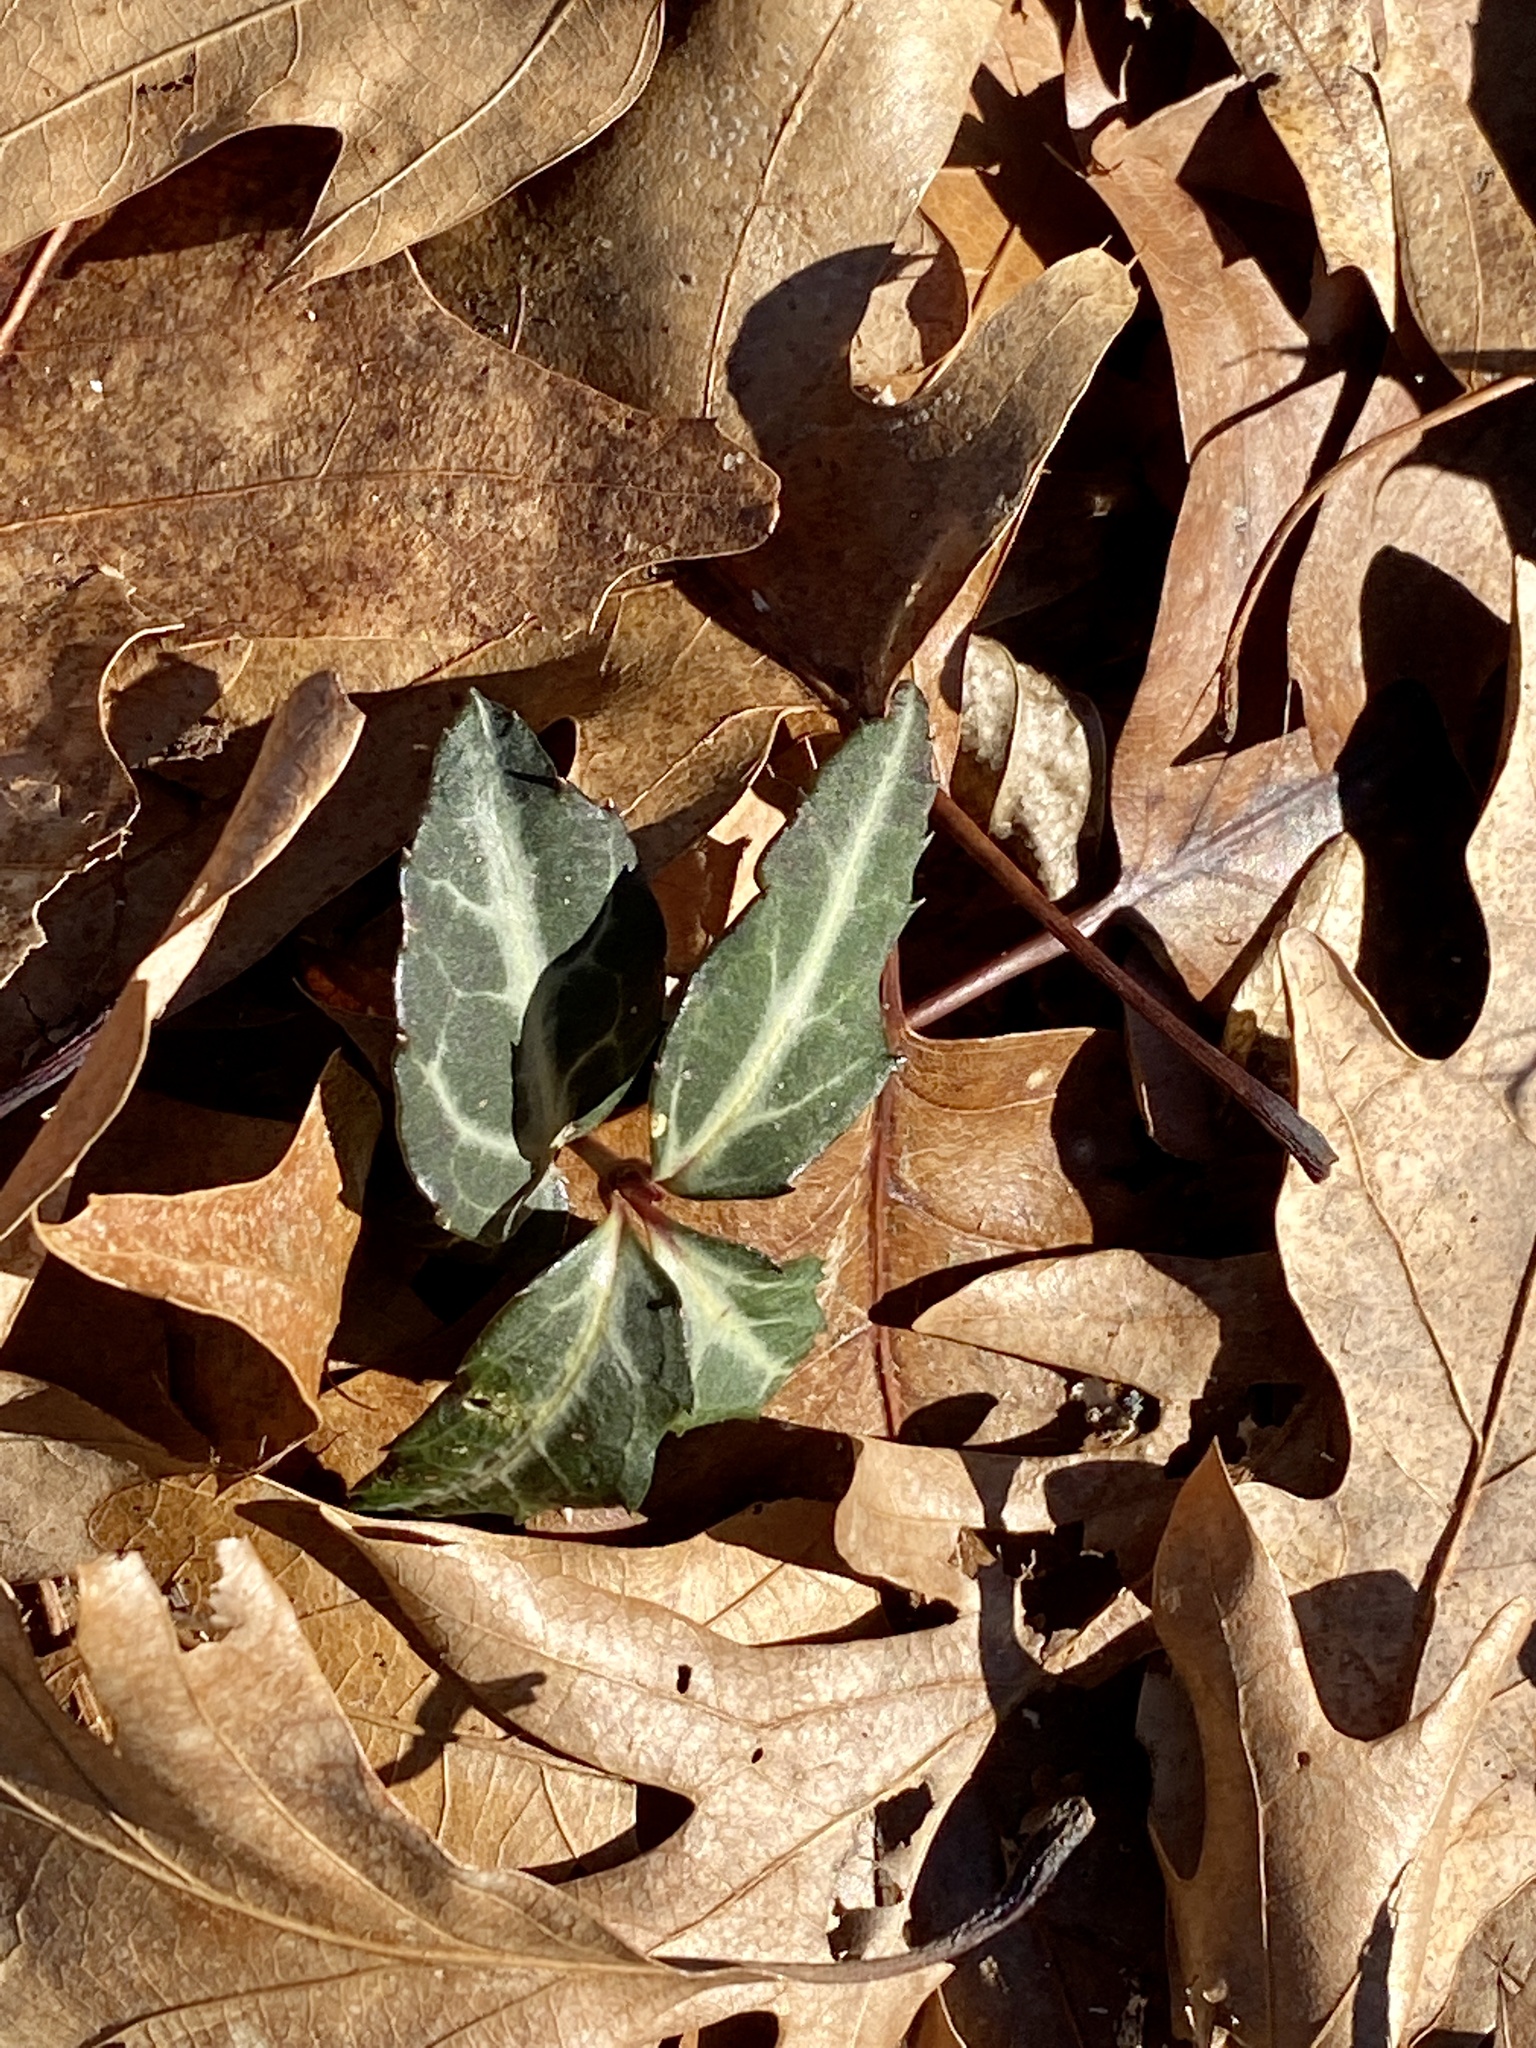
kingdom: Plantae
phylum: Tracheophyta
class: Magnoliopsida
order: Ericales
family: Ericaceae
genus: Chimaphila
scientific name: Chimaphila maculata
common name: Spotted pipsissewa
